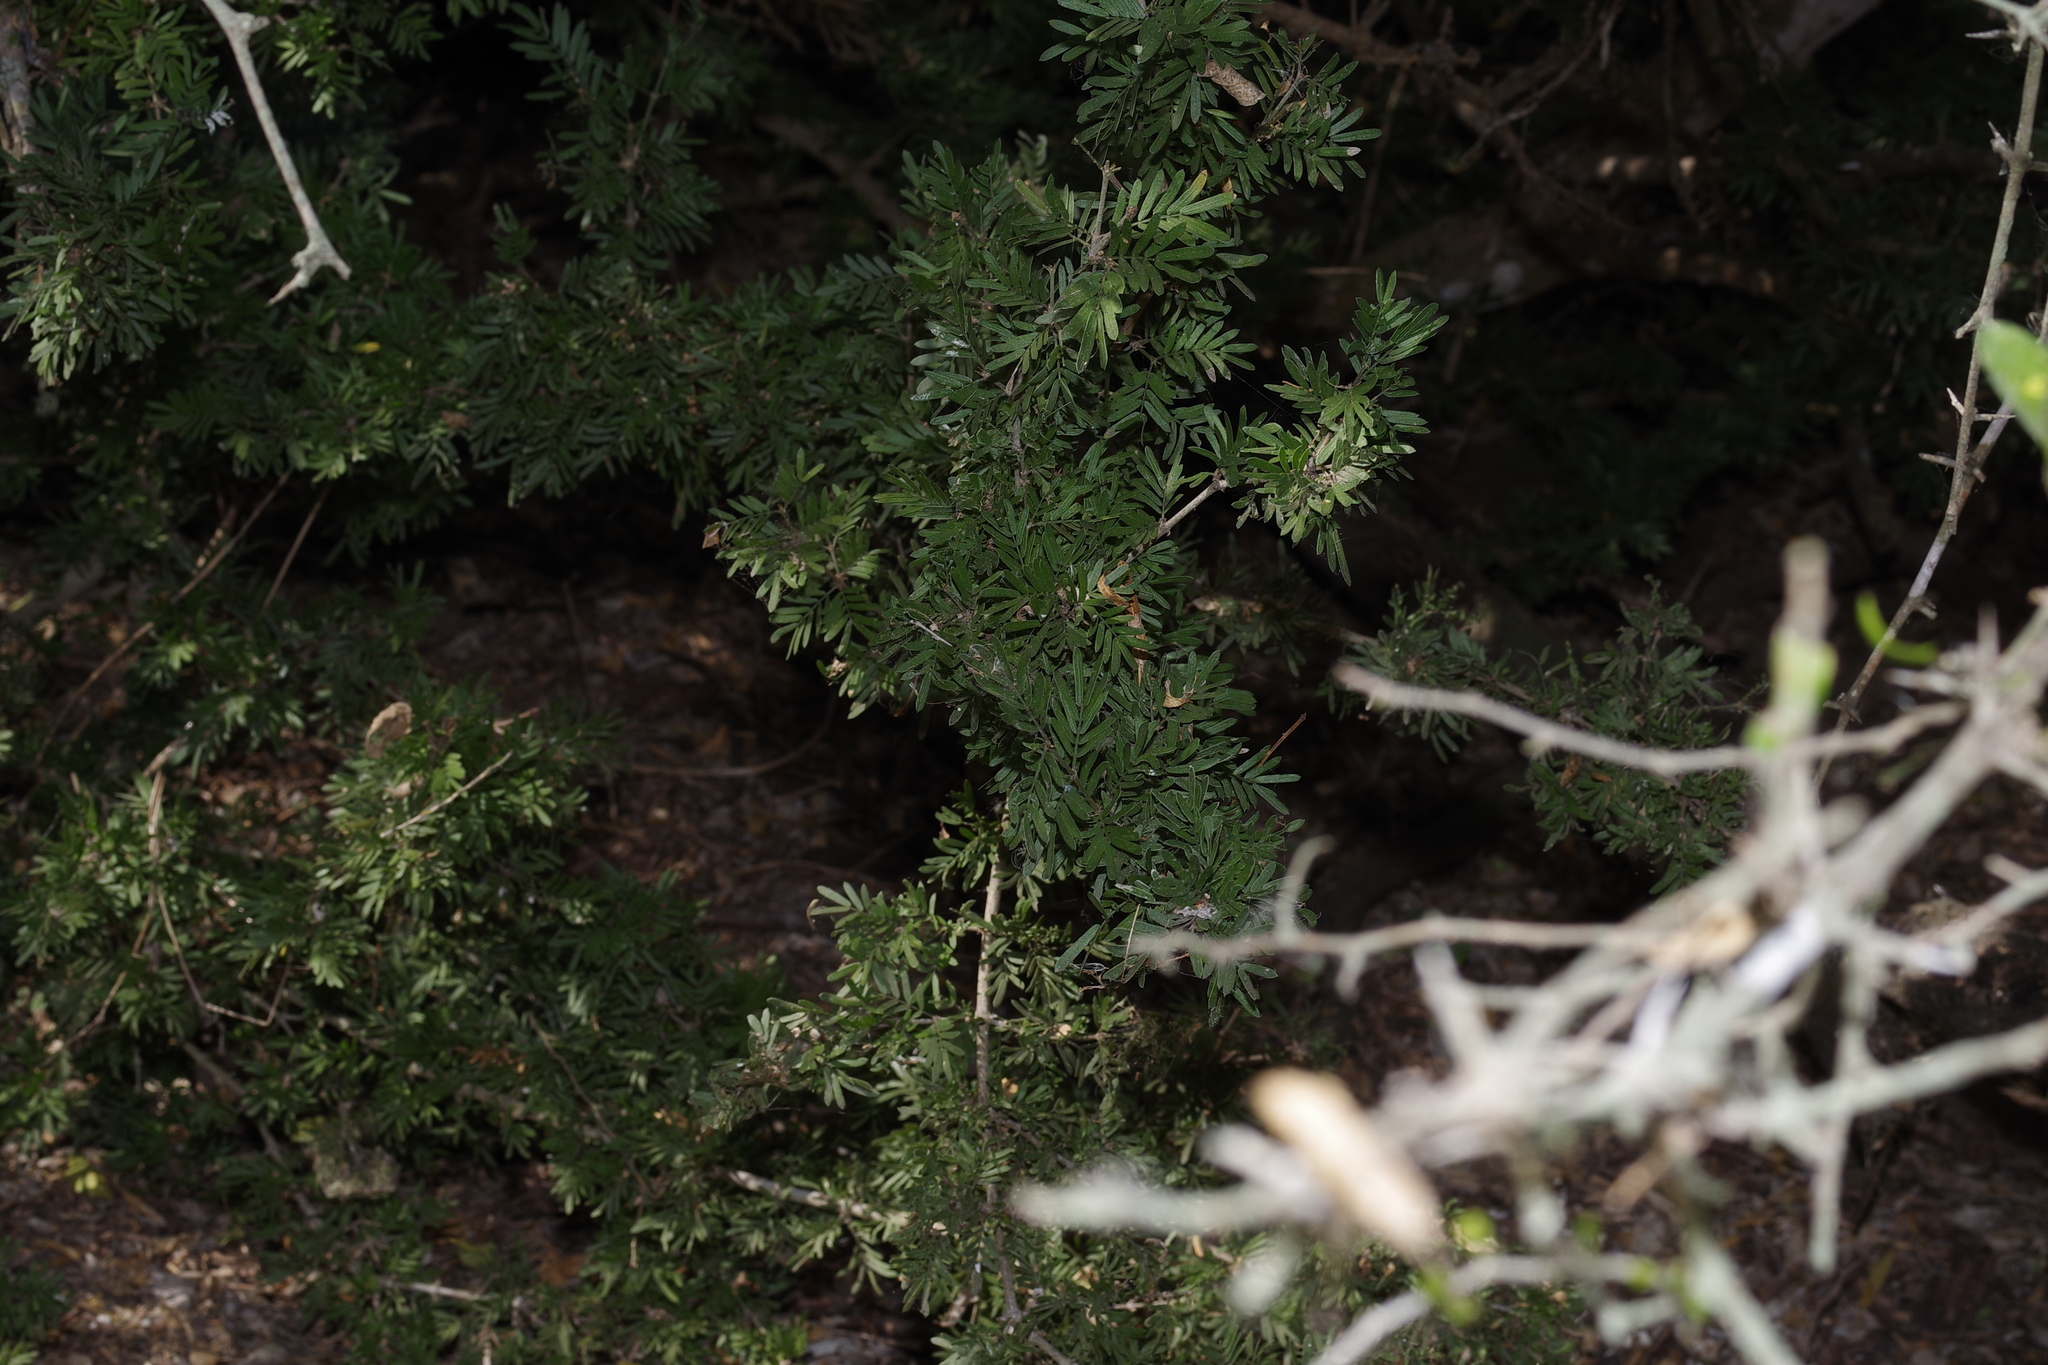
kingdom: Plantae
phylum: Tracheophyta
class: Magnoliopsida
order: Zygophyllales
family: Zygophyllaceae
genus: Porlieria
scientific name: Porlieria angustifolia
